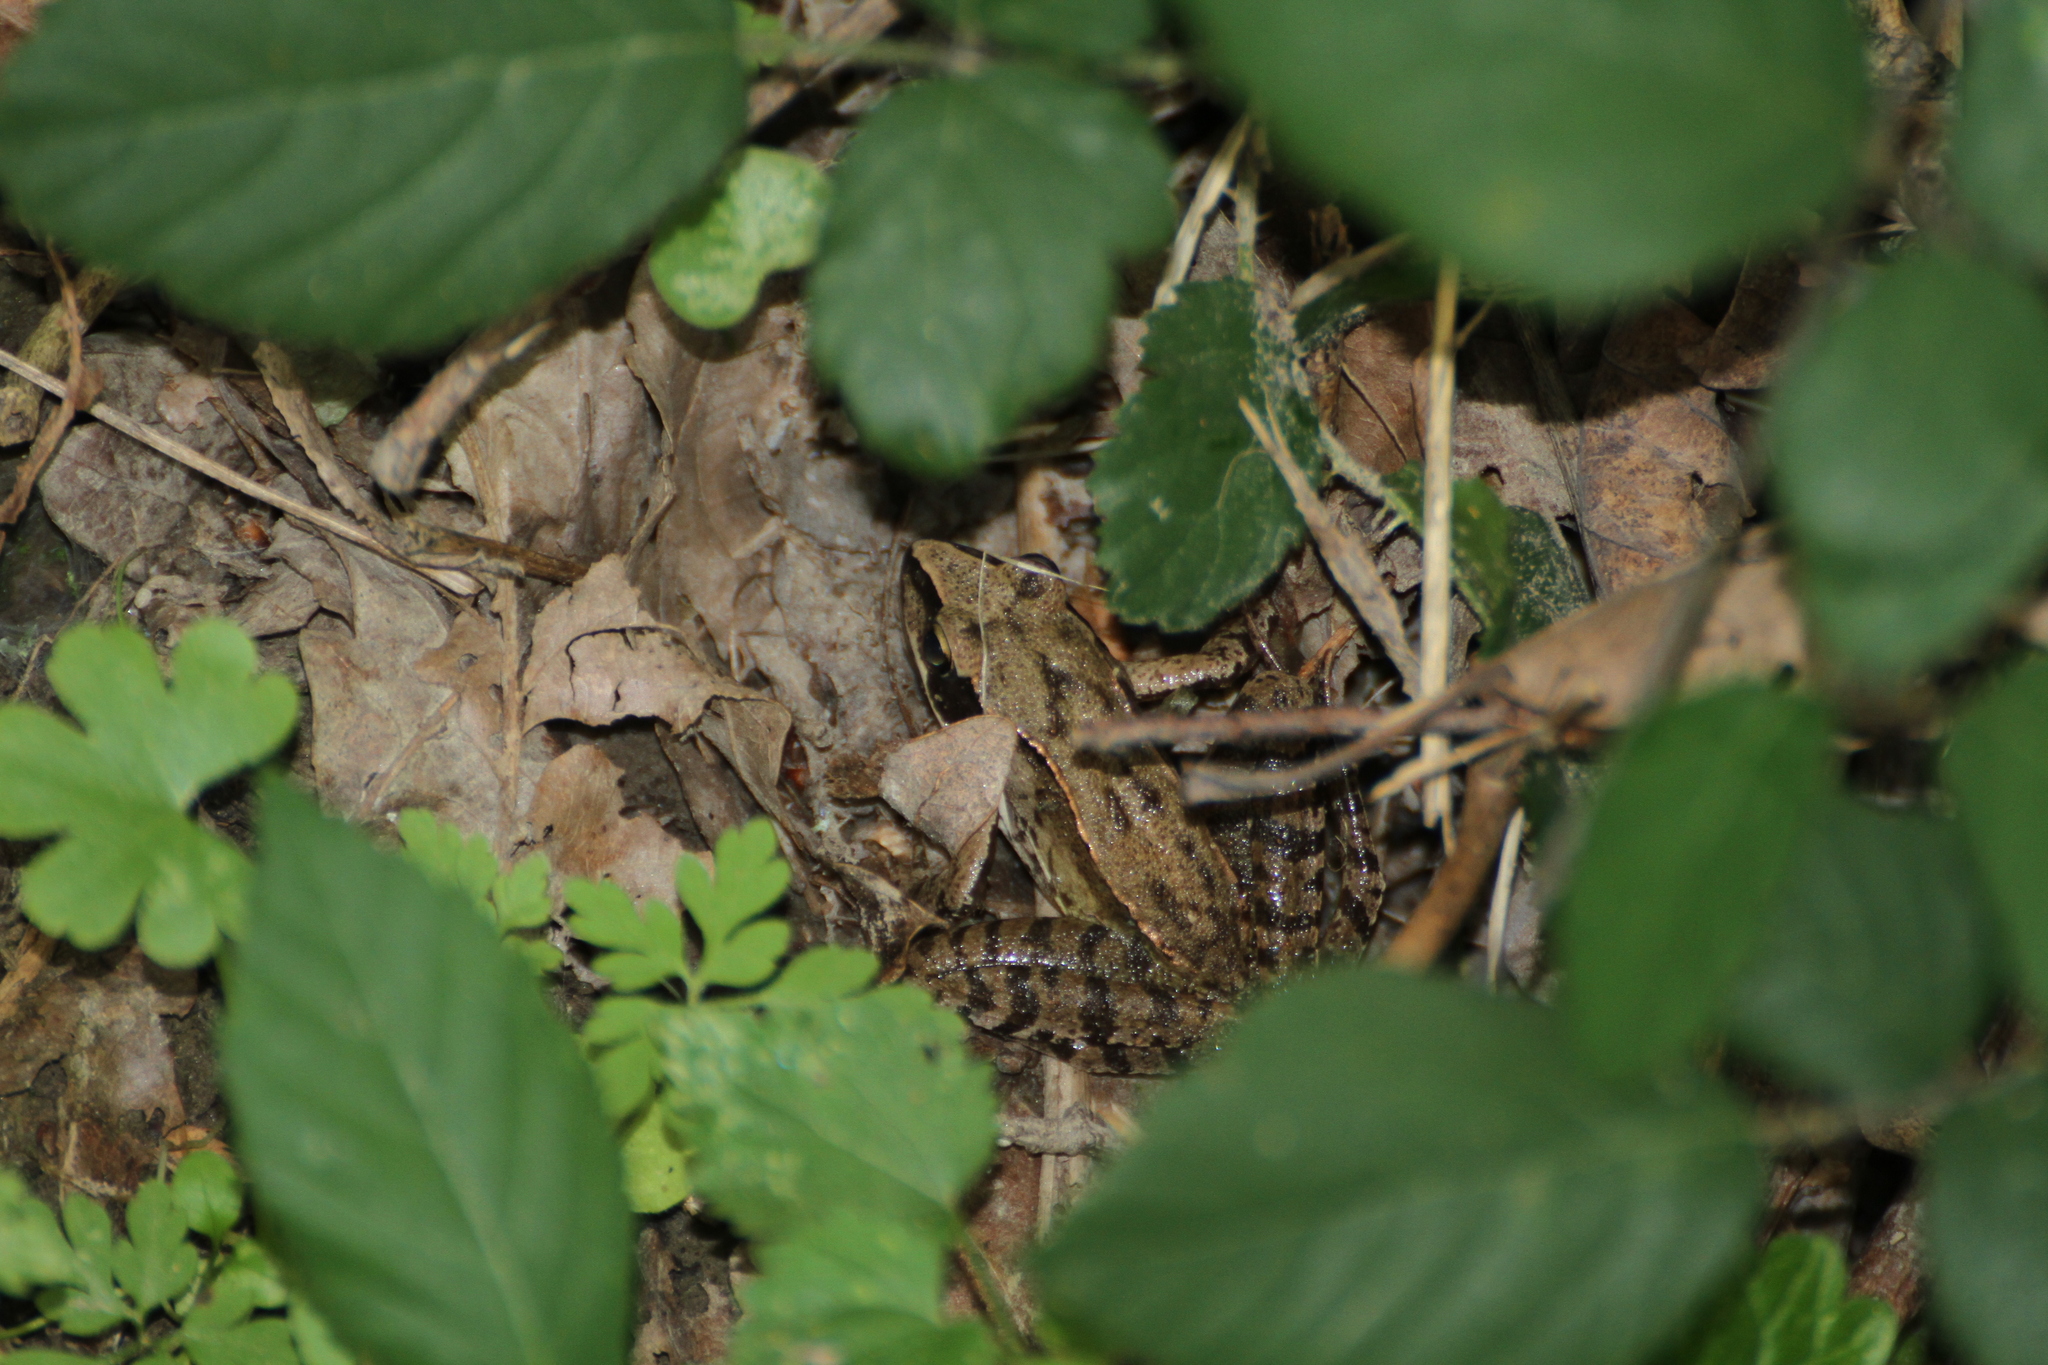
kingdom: Animalia
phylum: Chordata
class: Amphibia
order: Anura
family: Ranidae
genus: Rana
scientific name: Rana dalmatina
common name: Agile frog
